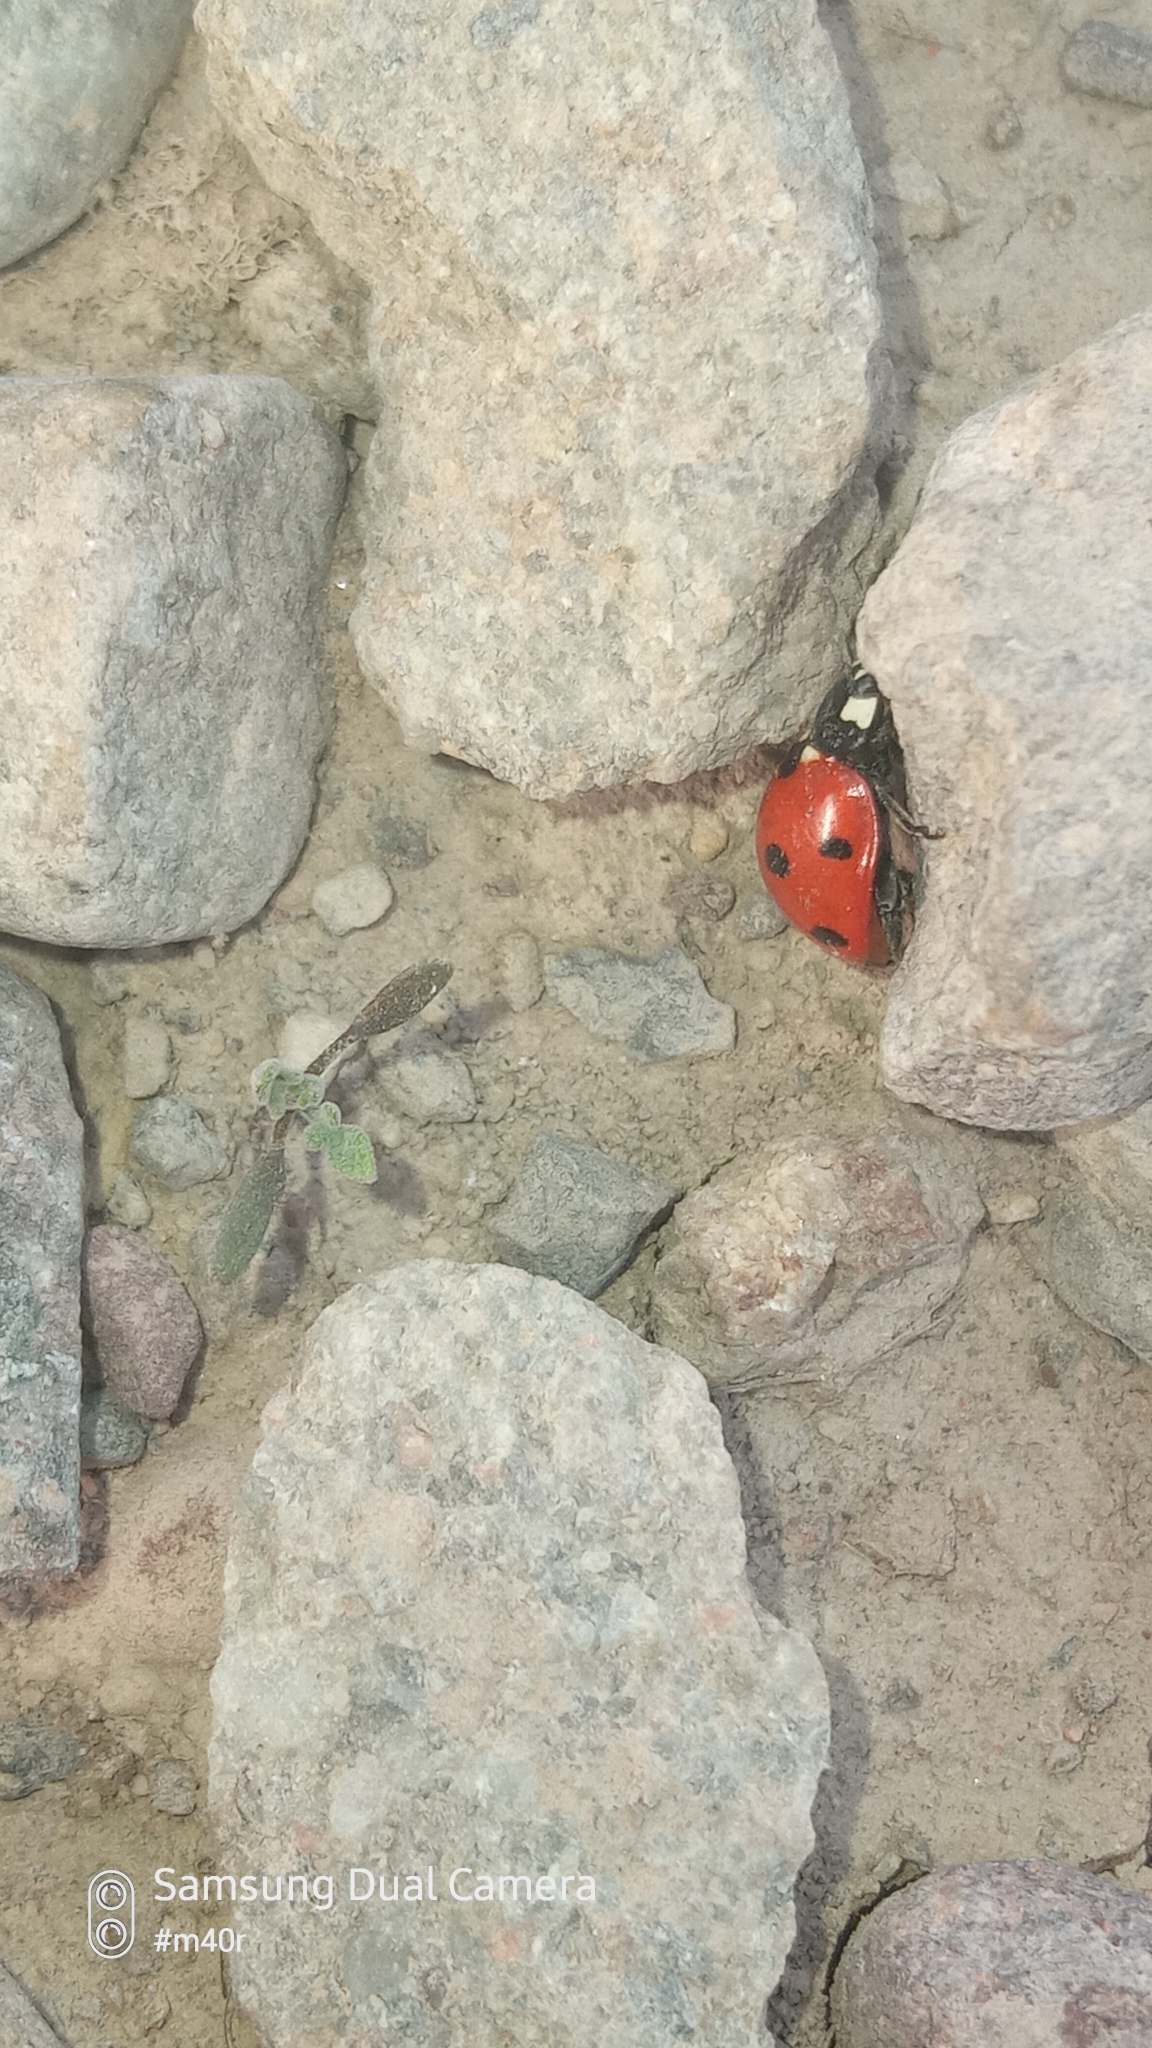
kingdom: Animalia
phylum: Arthropoda
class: Insecta
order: Coleoptera
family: Coccinellidae
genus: Coccinella
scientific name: Coccinella septempunctata
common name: Sevenspotted lady beetle
